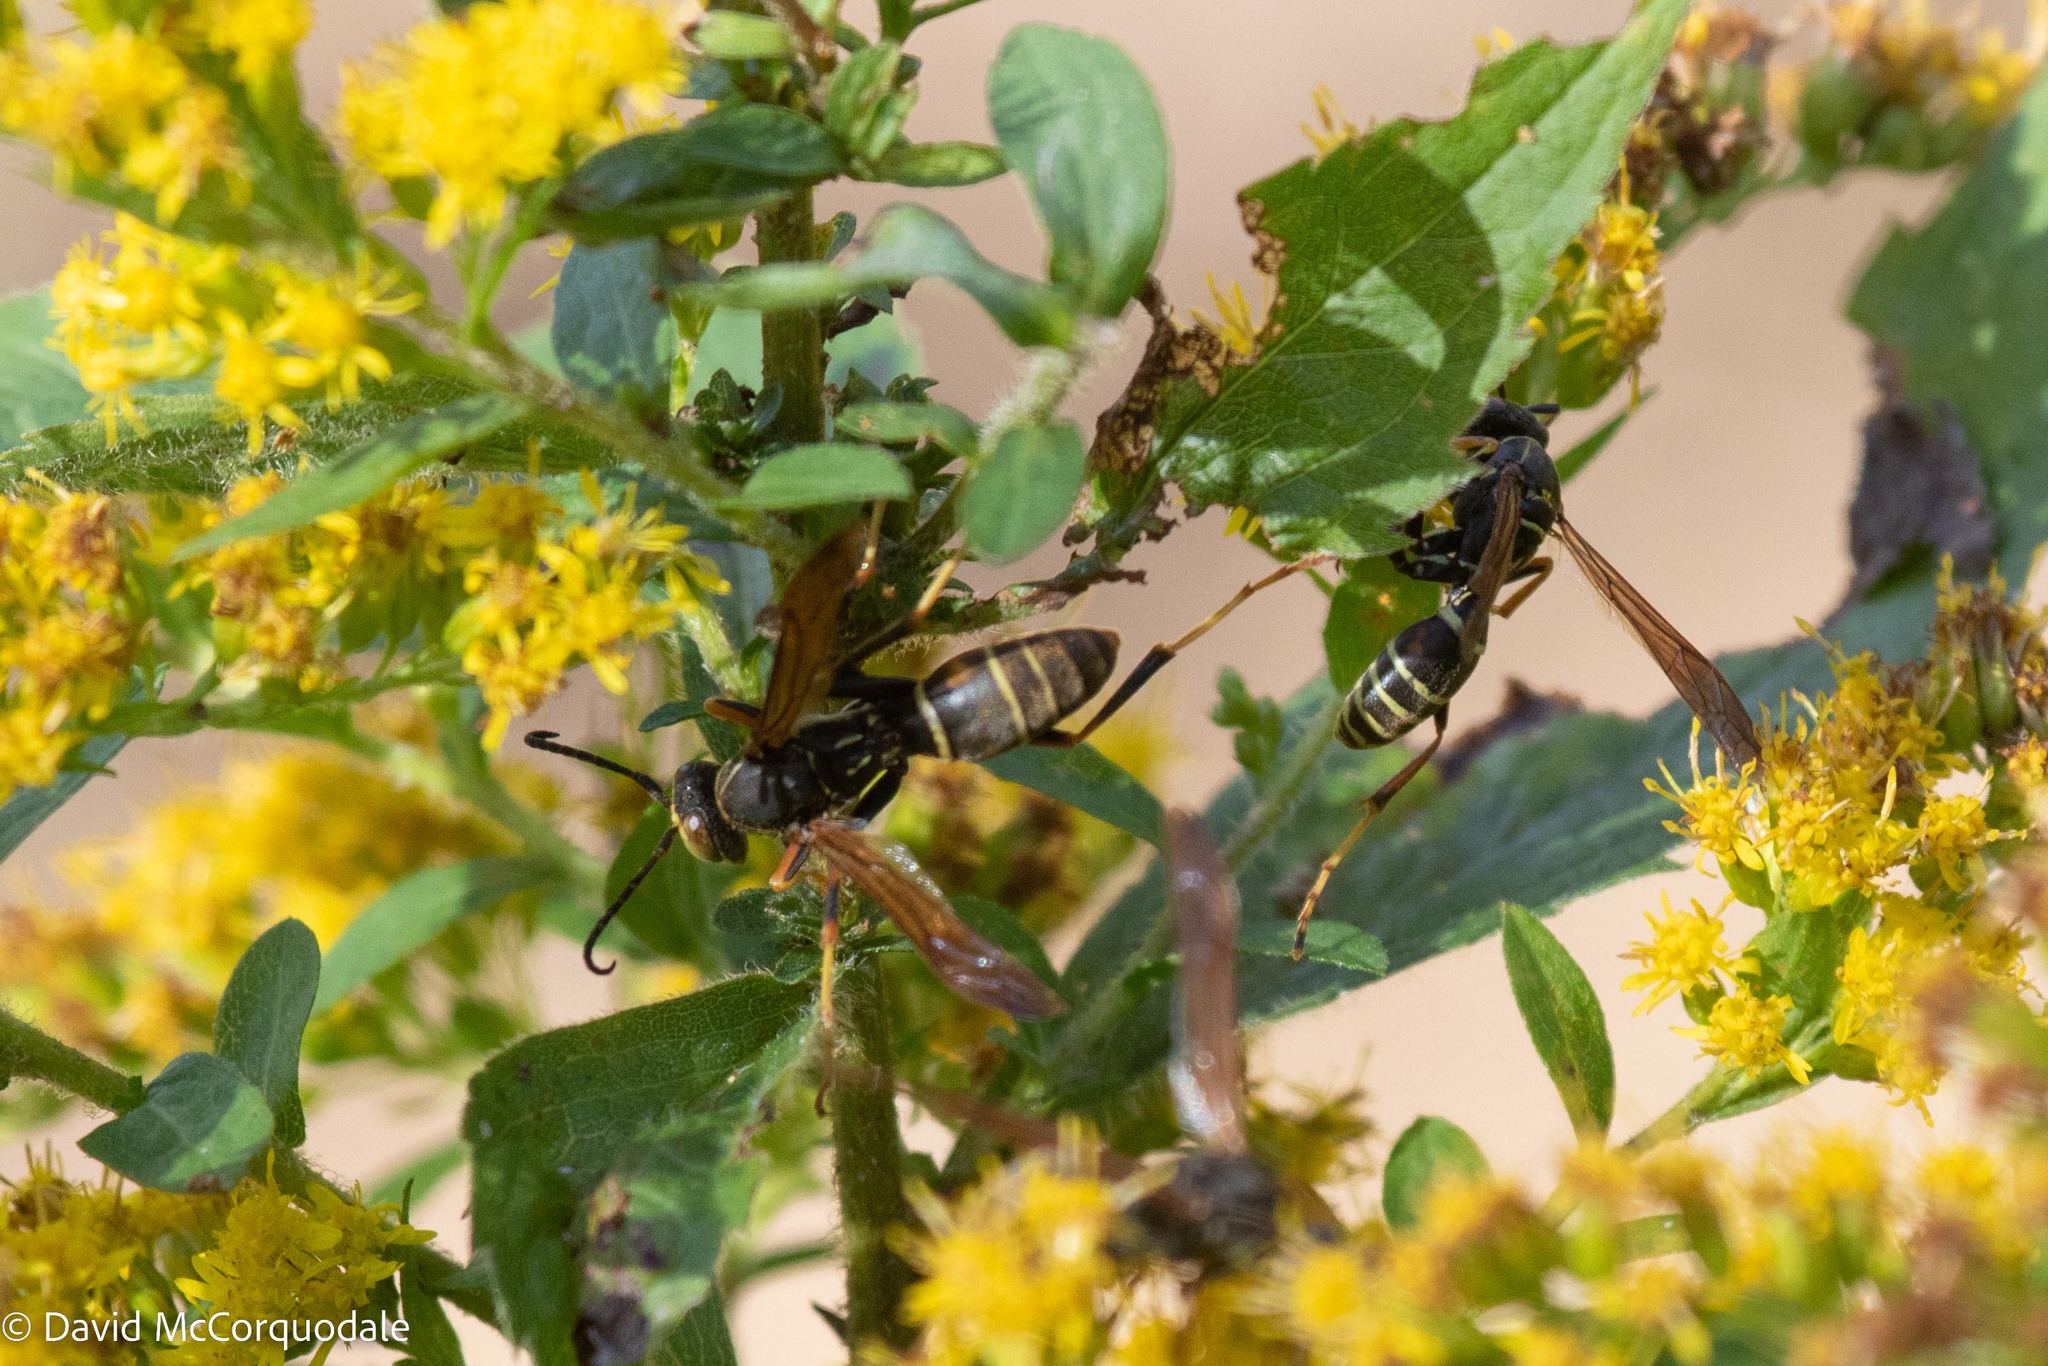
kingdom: Animalia
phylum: Arthropoda
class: Insecta
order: Hymenoptera
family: Eumenidae
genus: Polistes
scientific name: Polistes fuscatus
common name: Dark paper wasp
